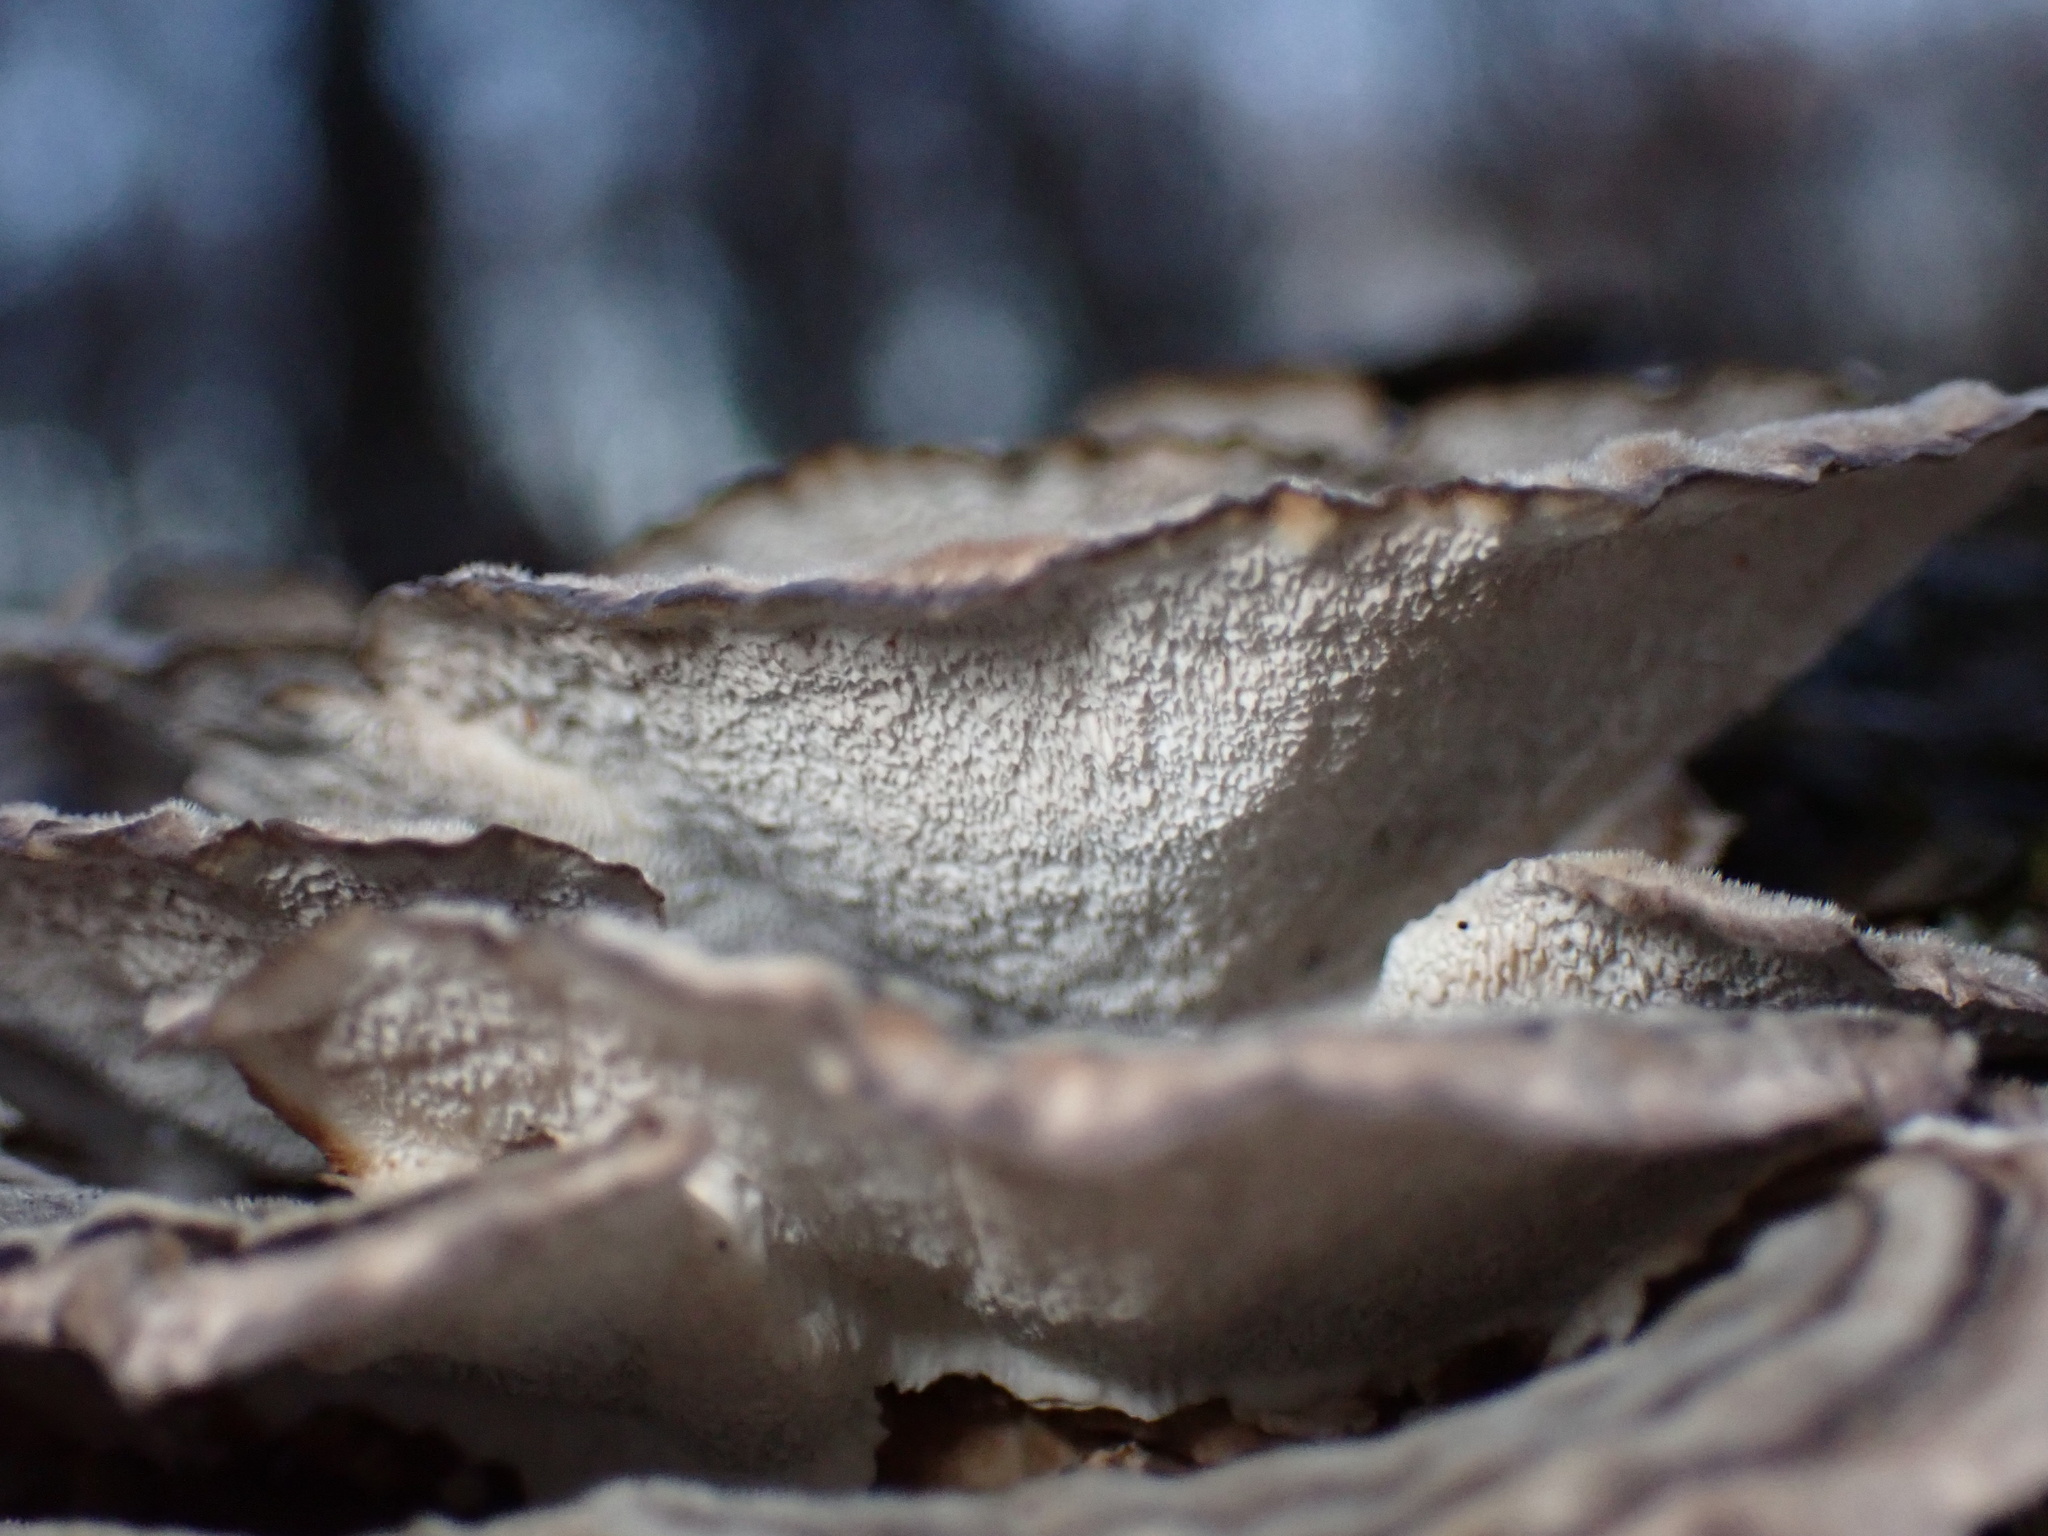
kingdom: Fungi
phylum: Basidiomycota
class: Agaricomycetes
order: Polyporales
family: Polyporaceae
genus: Trametes
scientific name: Trametes versicolor
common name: Turkeytail
